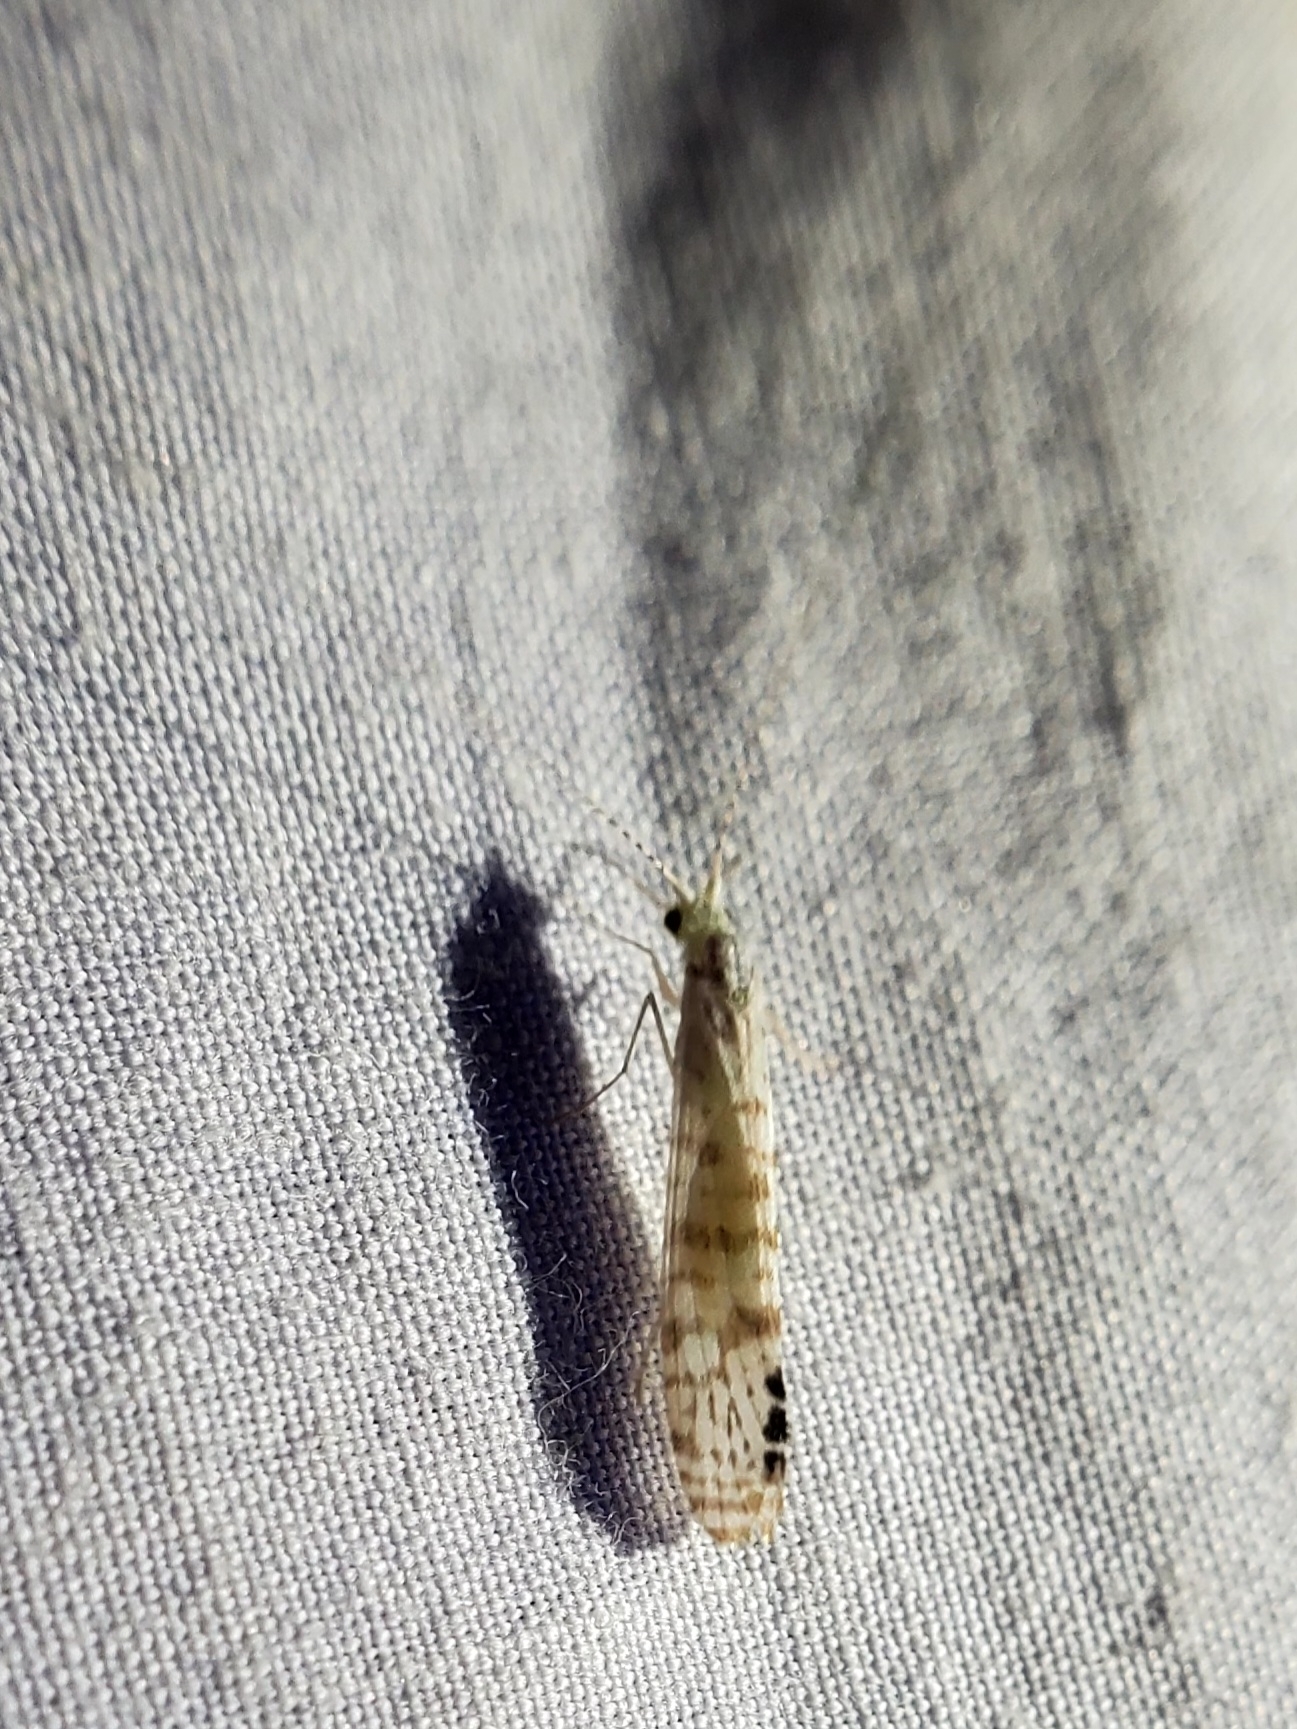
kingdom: Animalia
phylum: Arthropoda
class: Insecta
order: Trichoptera
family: Leptoceridae
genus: Nectopsyche
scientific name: Nectopsyche exquisita
